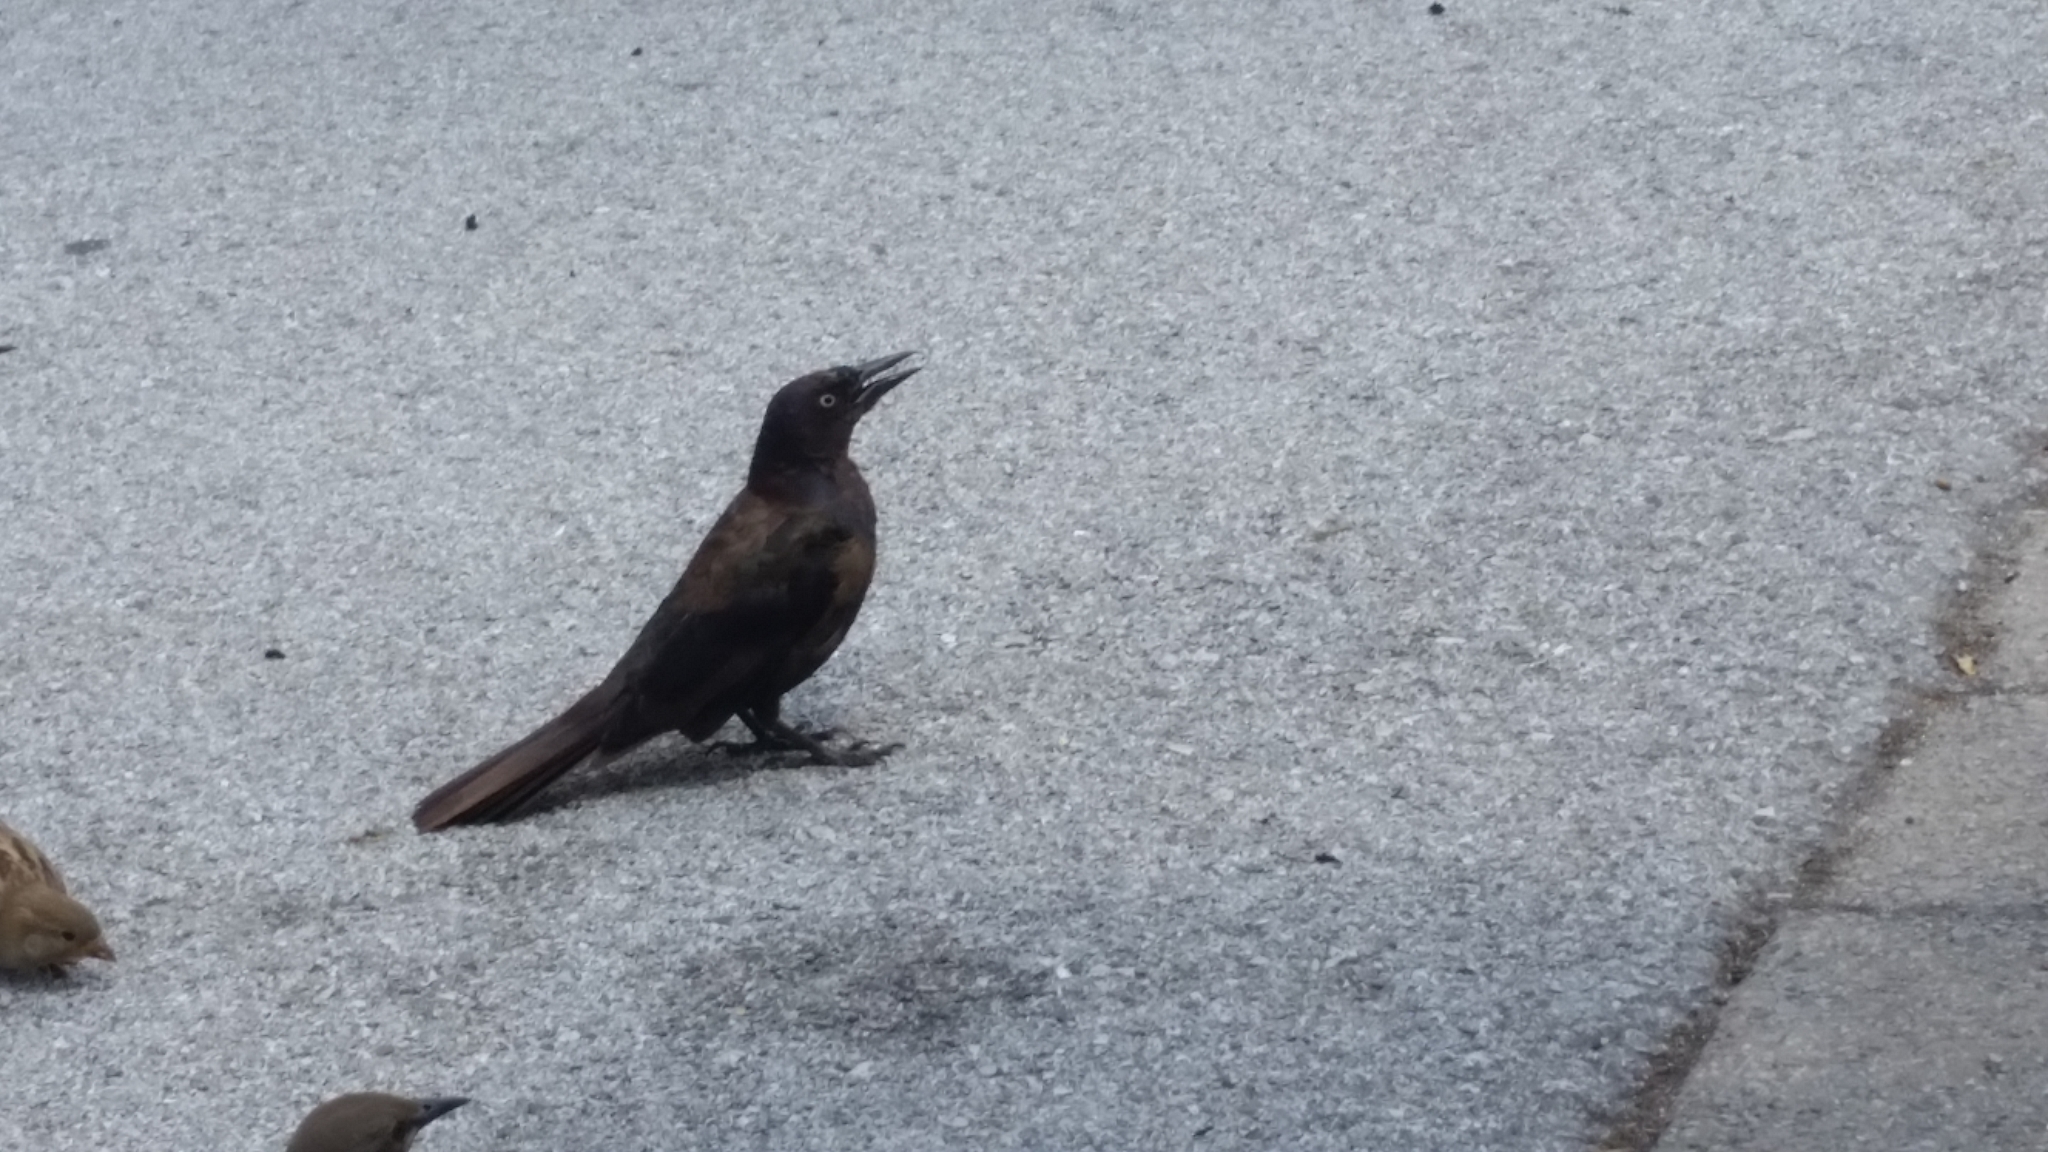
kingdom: Animalia
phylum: Chordata
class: Aves
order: Passeriformes
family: Icteridae
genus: Quiscalus
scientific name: Quiscalus quiscula
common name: Common grackle
